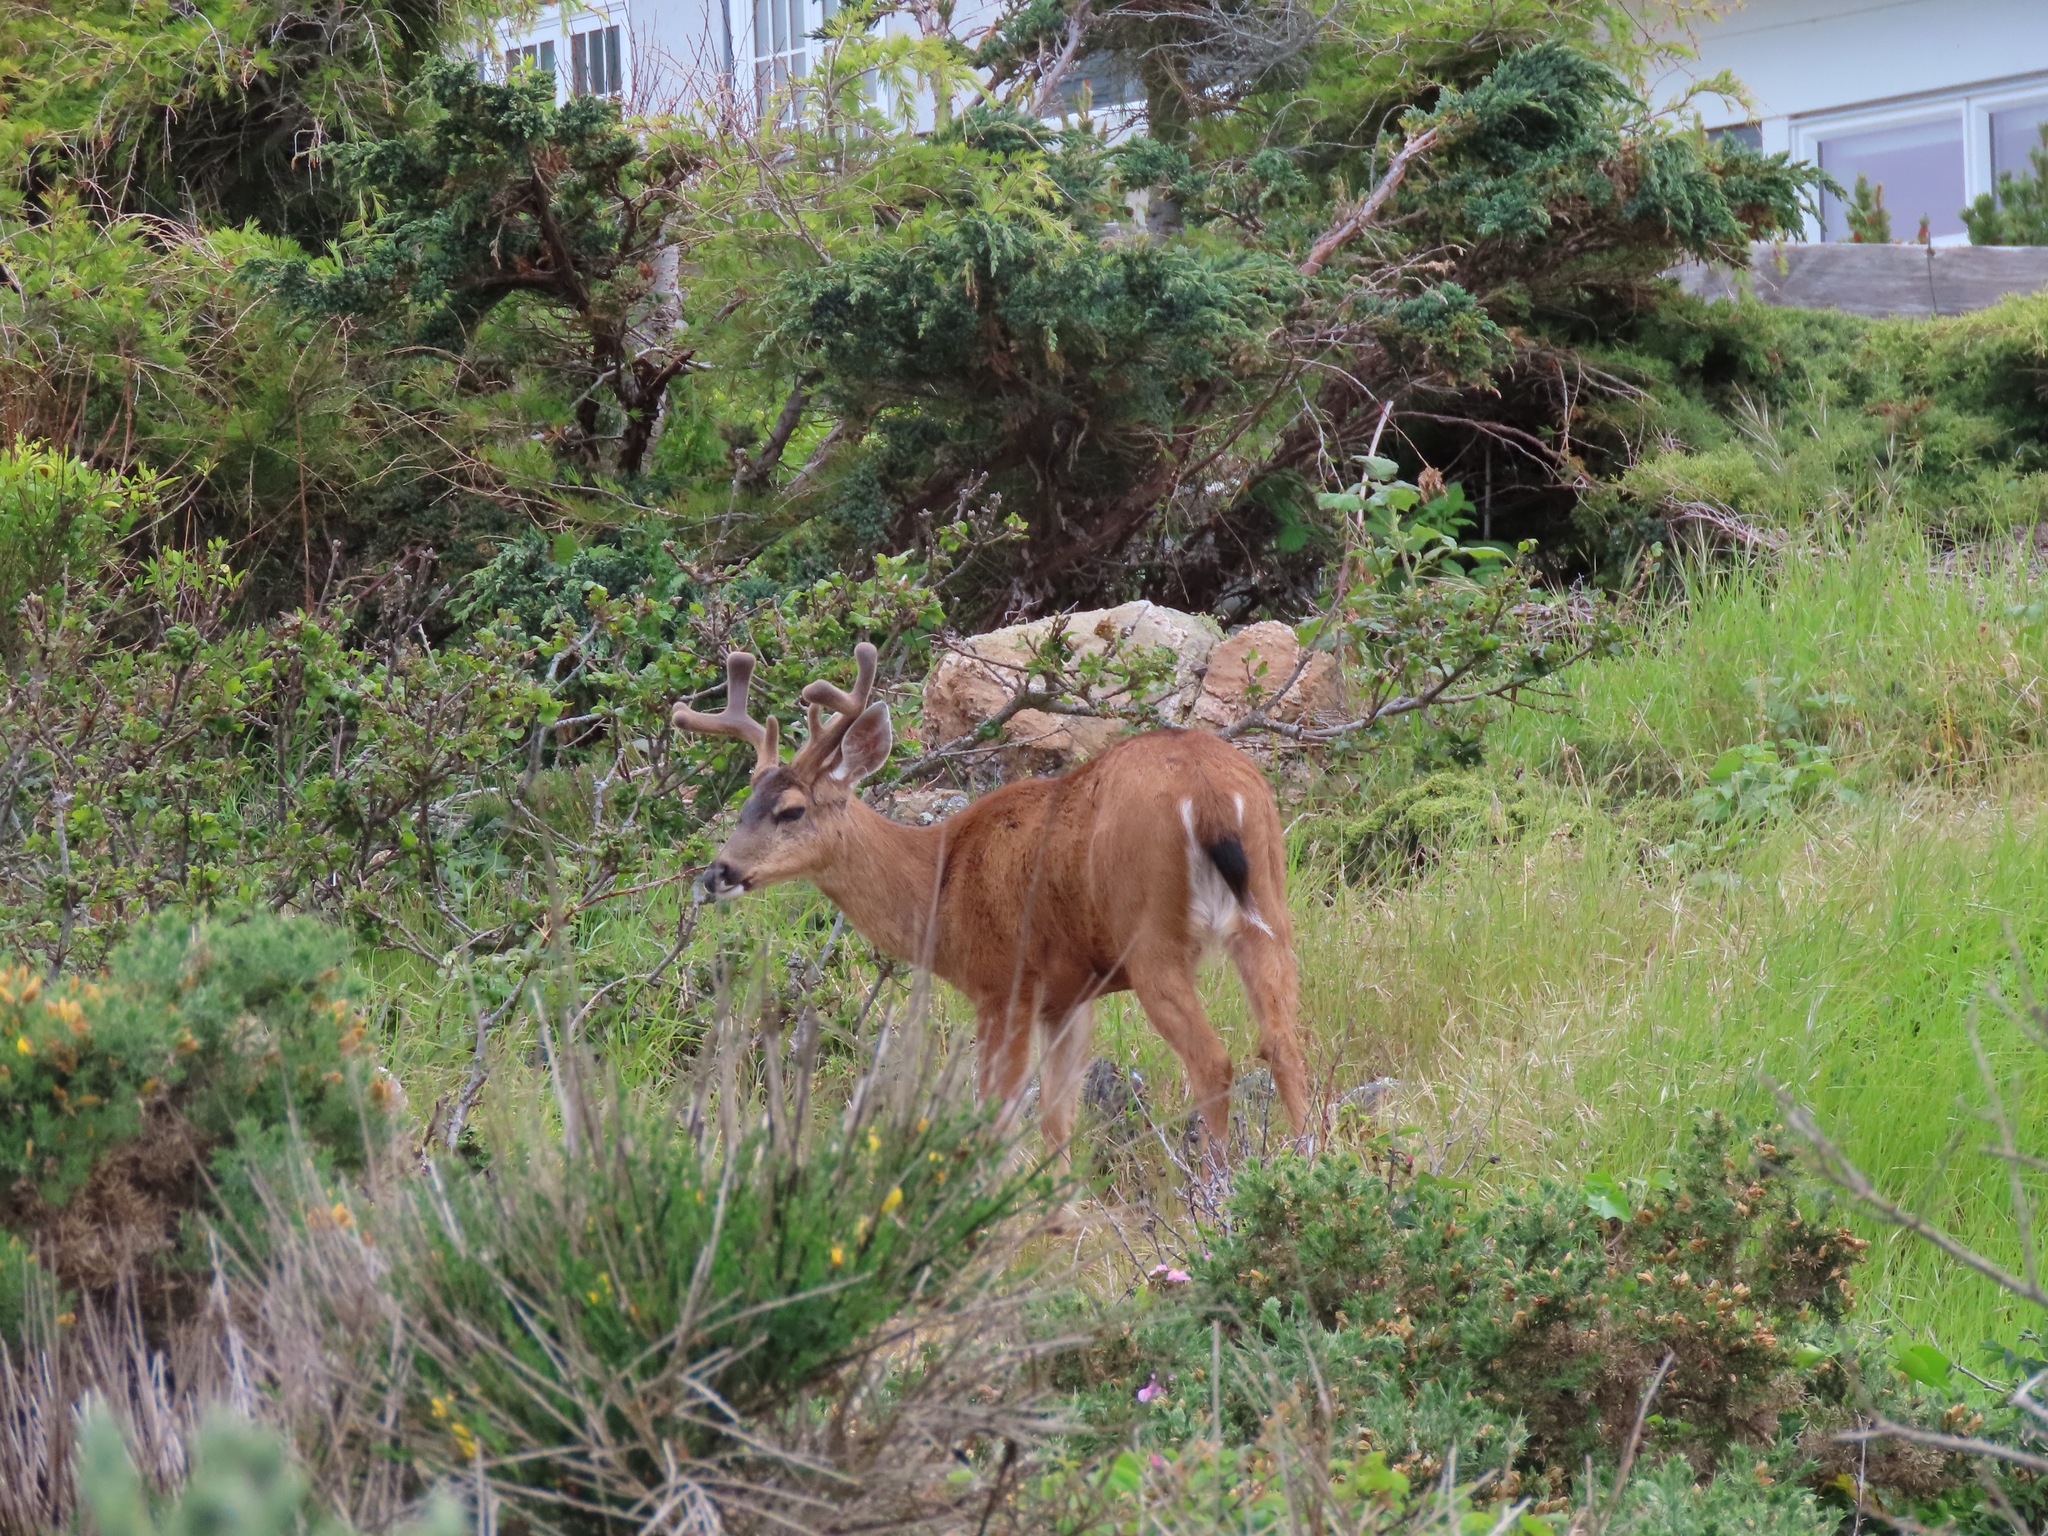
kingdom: Animalia
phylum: Chordata
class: Mammalia
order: Artiodactyla
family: Cervidae
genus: Odocoileus
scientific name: Odocoileus hemionus
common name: Mule deer
